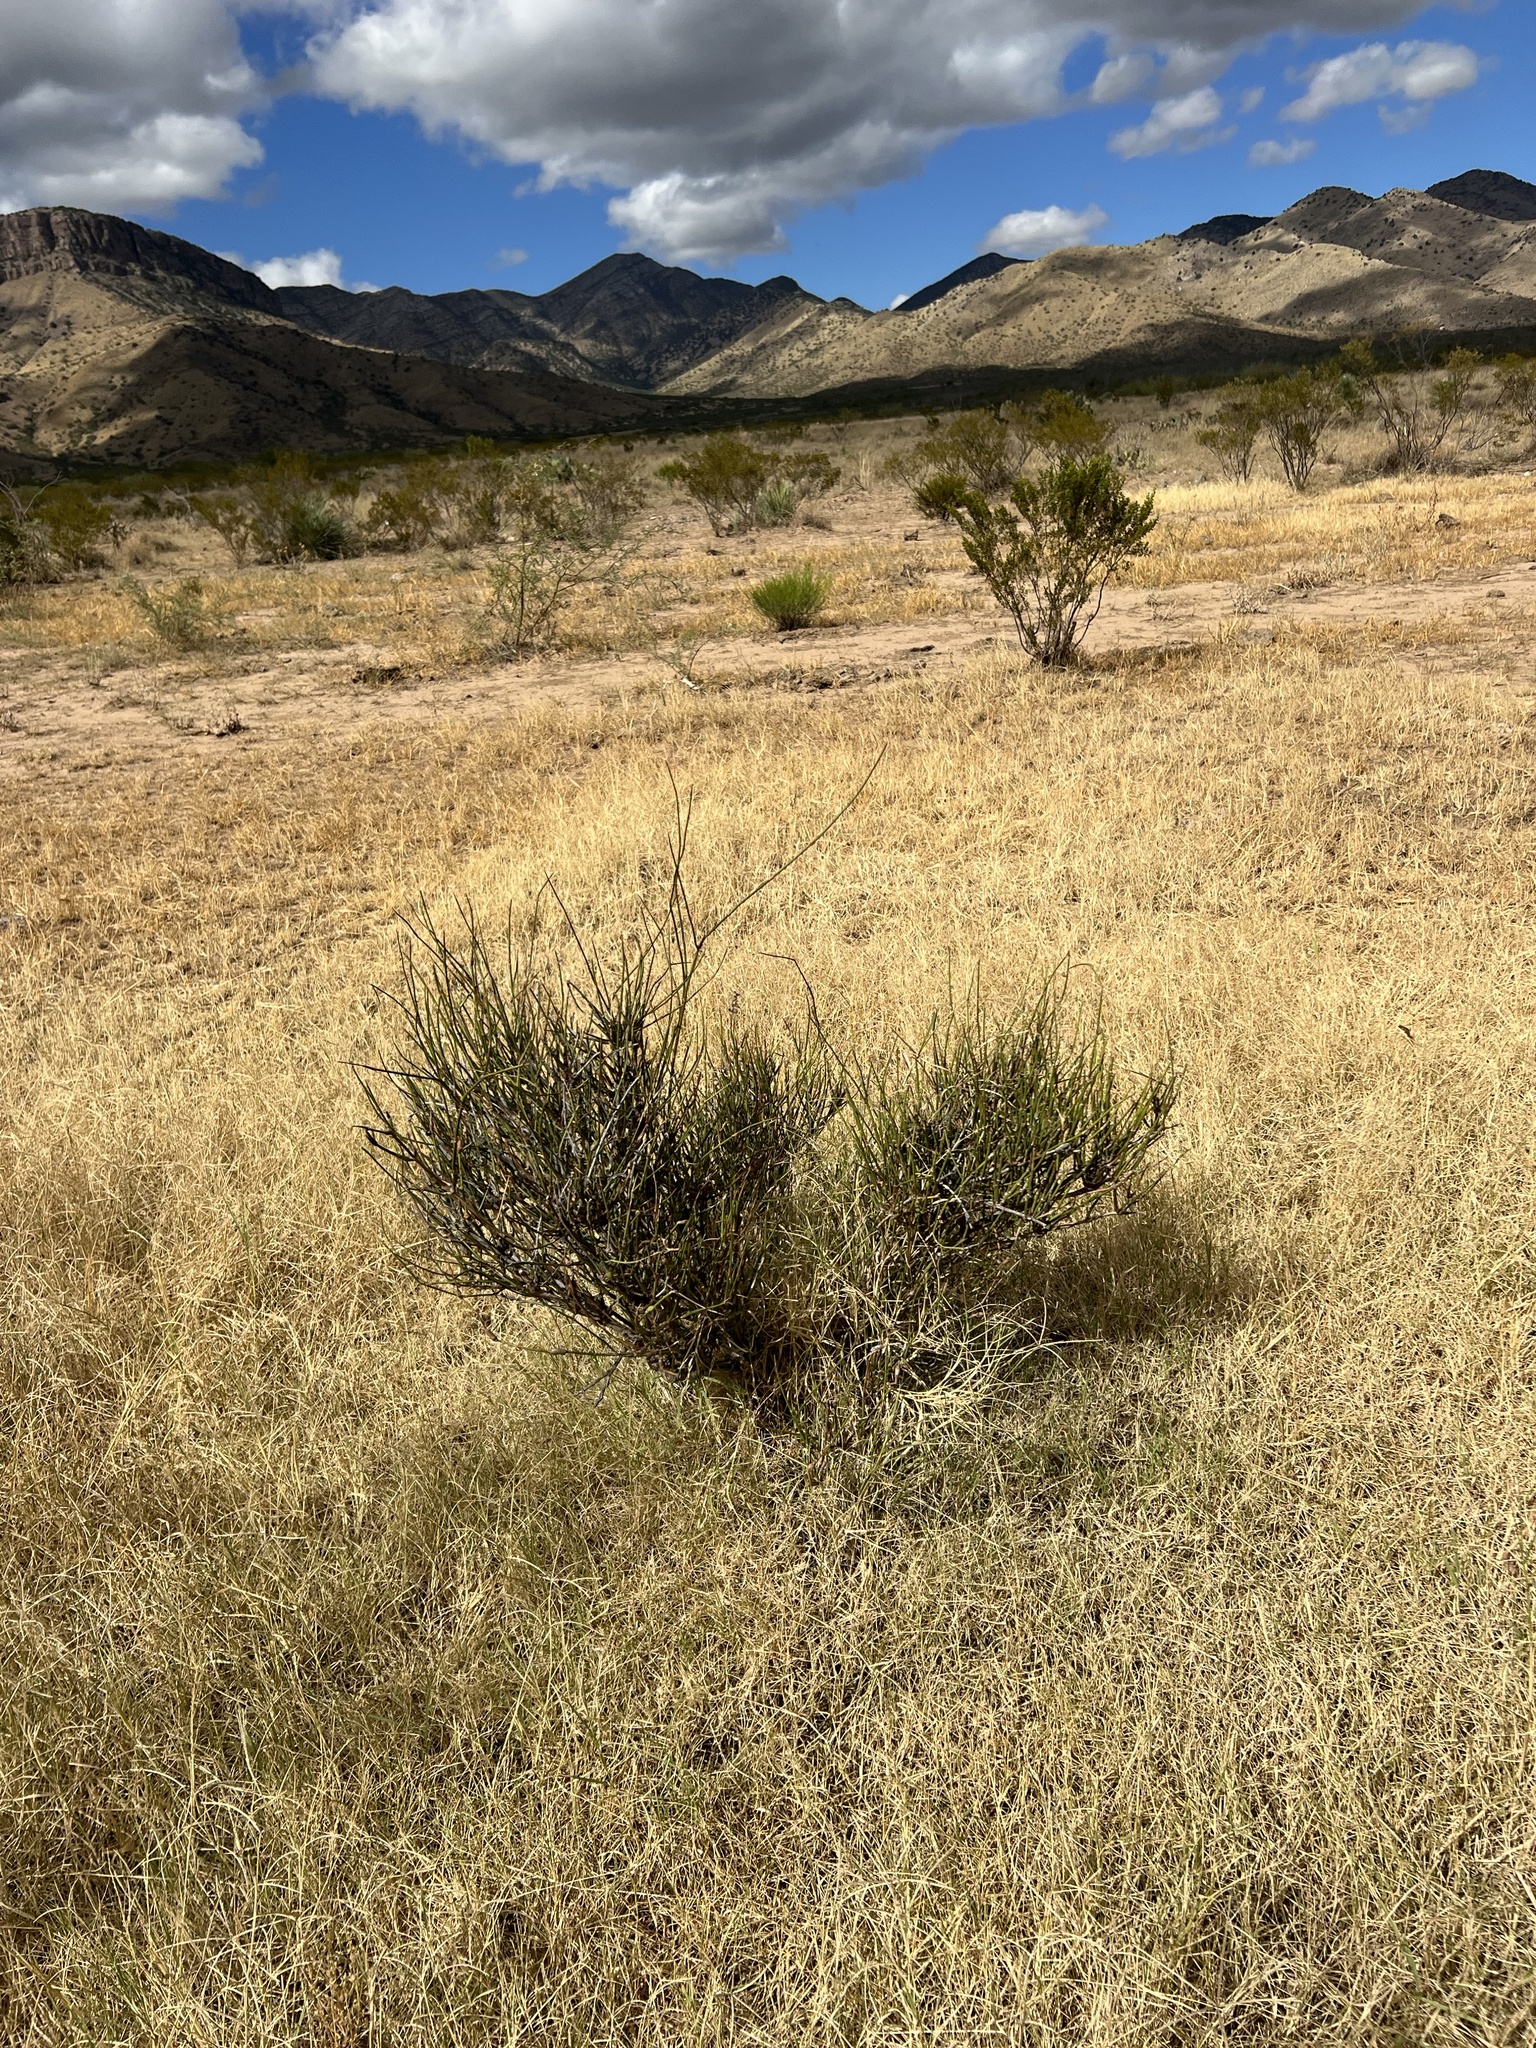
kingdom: Plantae
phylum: Tracheophyta
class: Gnetopsida
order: Ephedrales
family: Ephedraceae
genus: Ephedra
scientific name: Ephedra trifurca
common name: Mexican-tea
